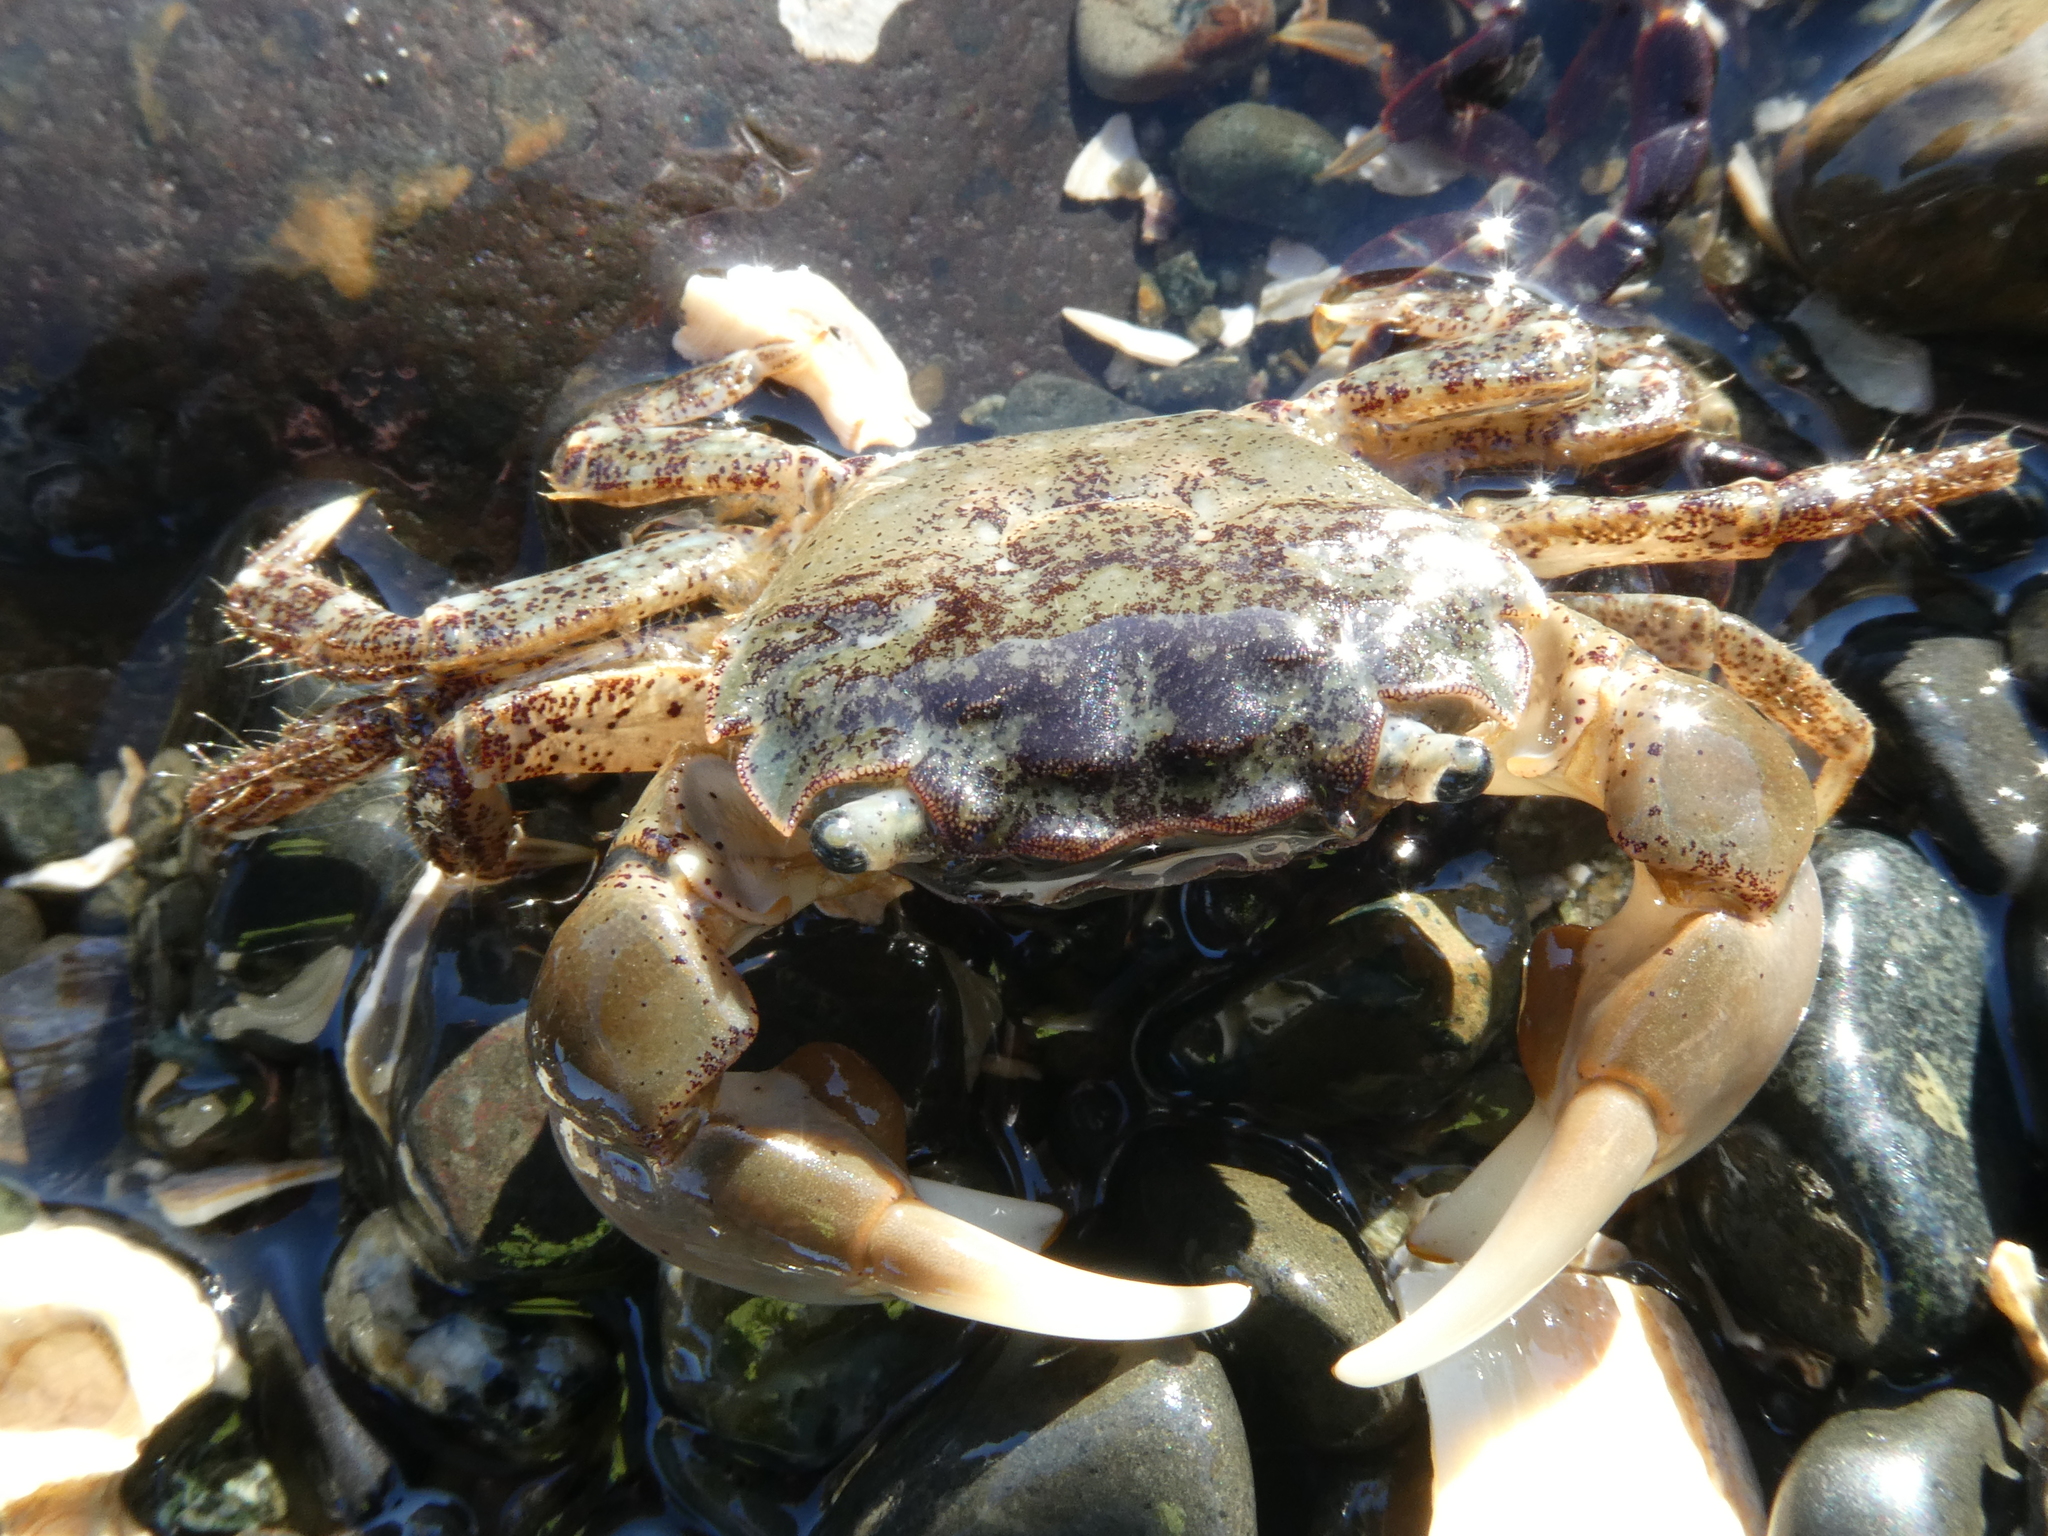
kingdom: Animalia
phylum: Arthropoda
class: Malacostraca
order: Decapoda
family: Varunidae
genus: Hemigrapsus
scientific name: Hemigrapsus oregonensis
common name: Yellow shore crab
